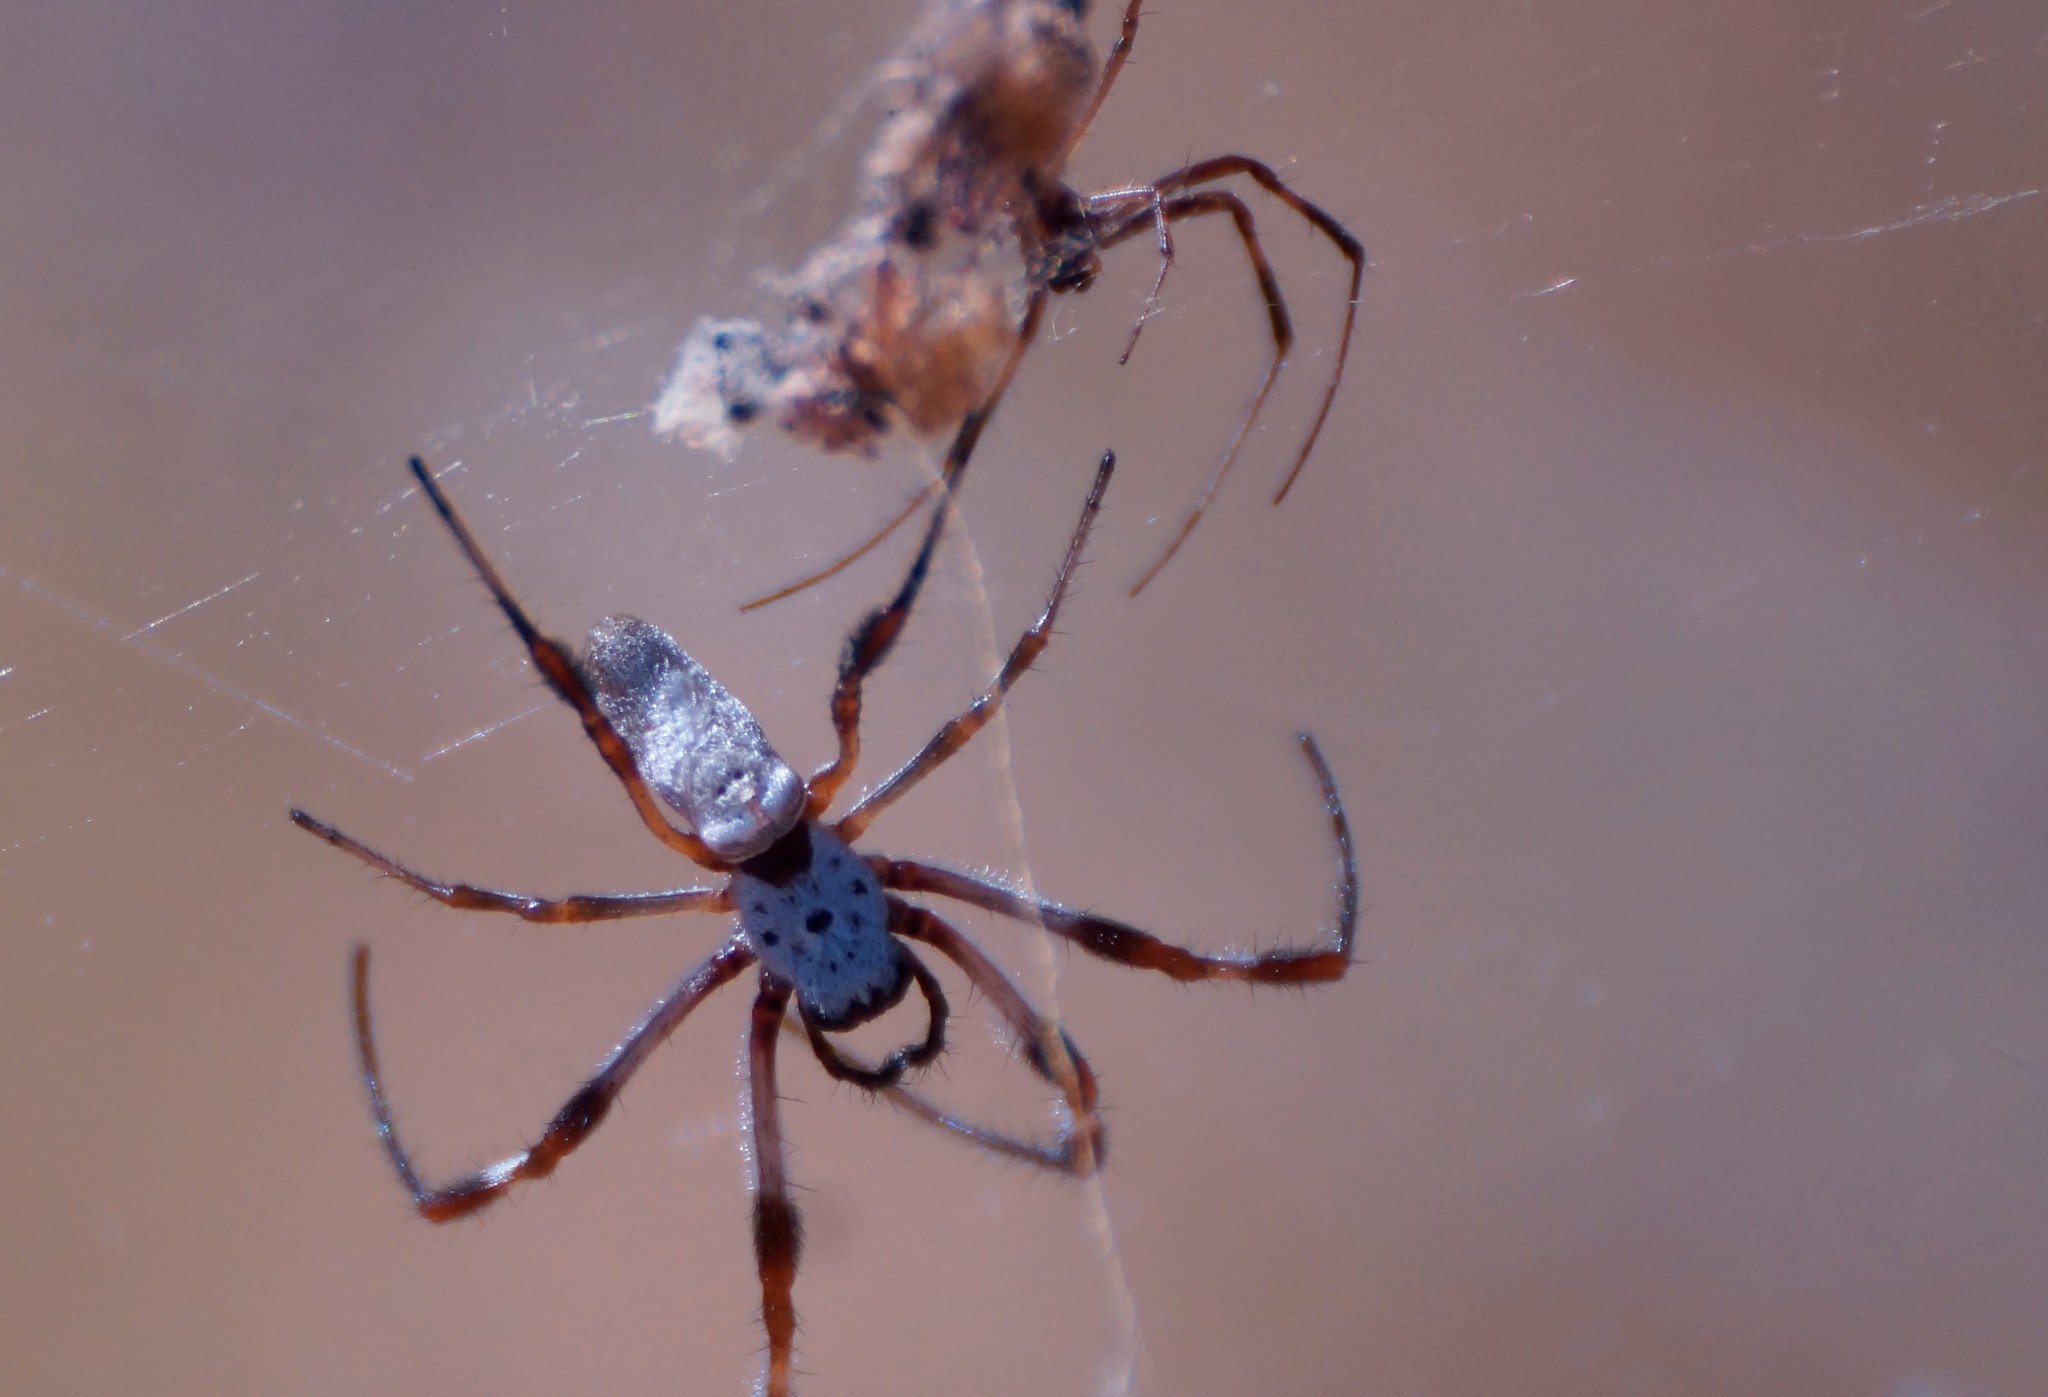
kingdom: Animalia
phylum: Arthropoda
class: Arachnida
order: Araneae
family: Araneidae
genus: Trichonephila
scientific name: Trichonephila edulis
